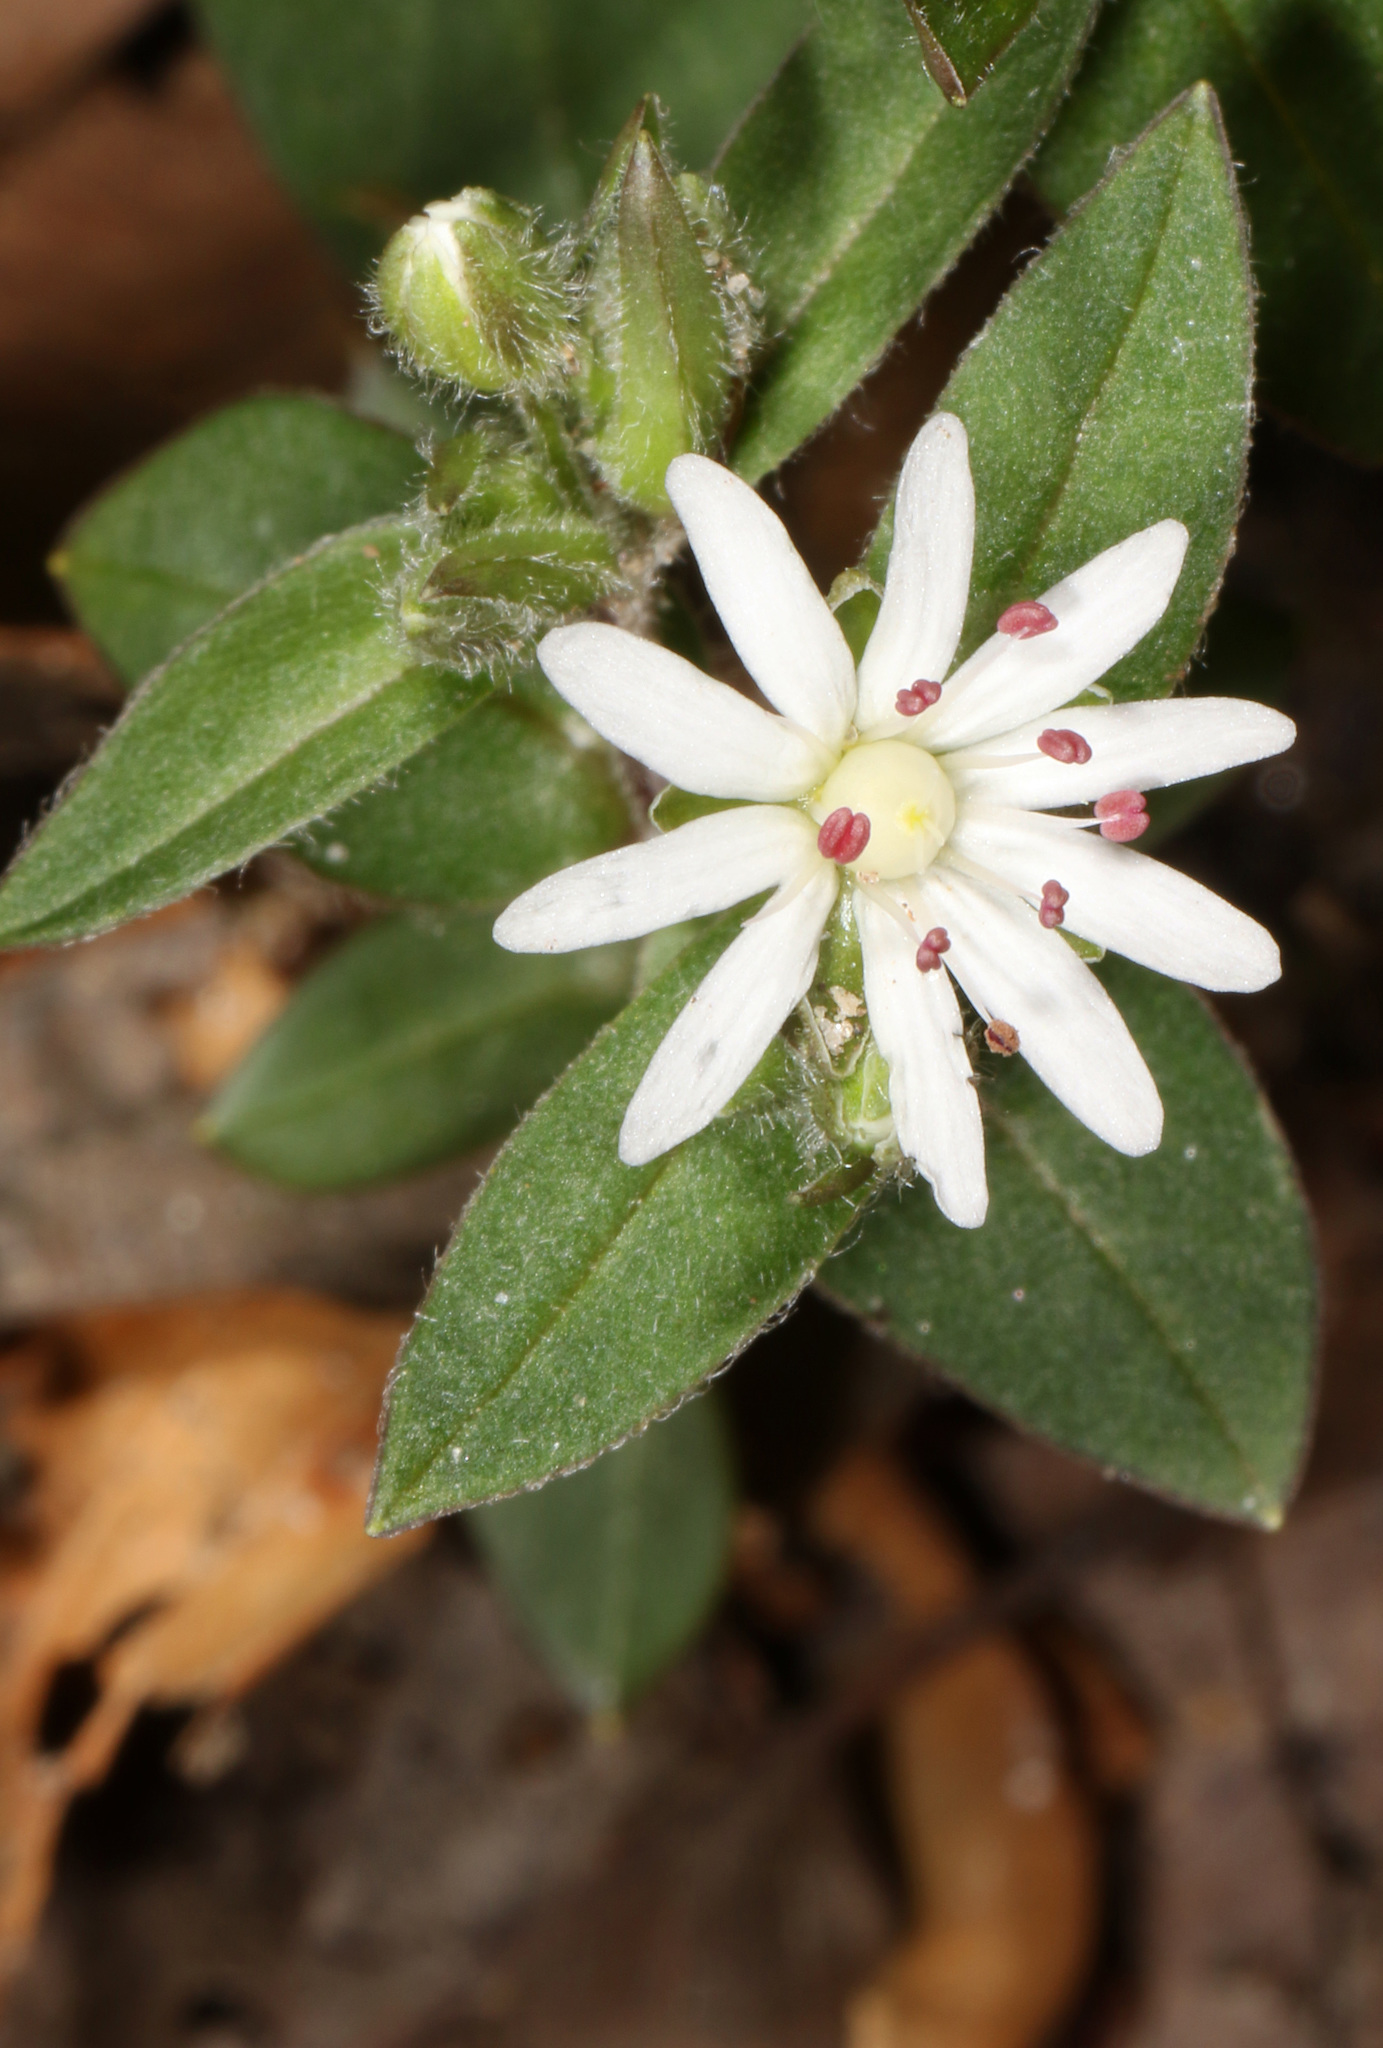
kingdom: Plantae
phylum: Tracheophyta
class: Magnoliopsida
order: Caryophyllales
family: Caryophyllaceae
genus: Stellaria
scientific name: Stellaria pubera
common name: Star chickweed
